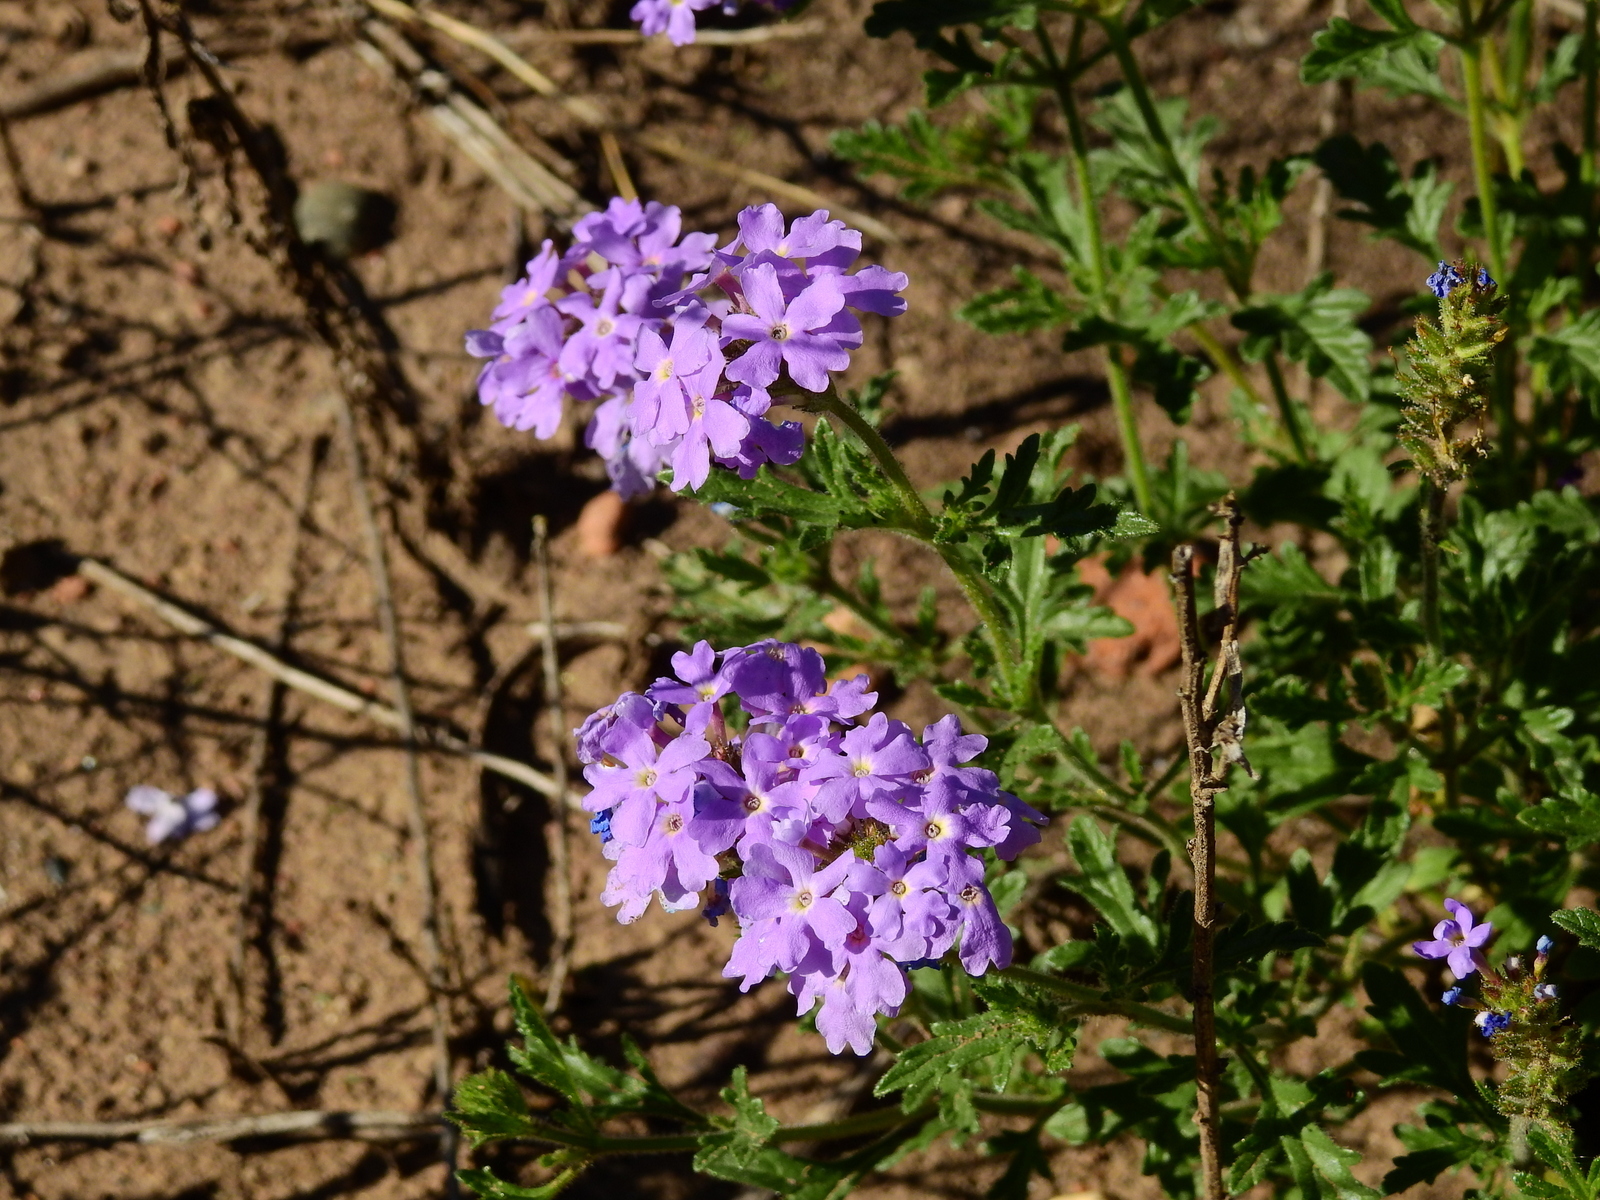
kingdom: Plantae
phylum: Tracheophyta
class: Magnoliopsida
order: Lamiales
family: Verbenaceae
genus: Verbena
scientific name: Verbena mendocina
